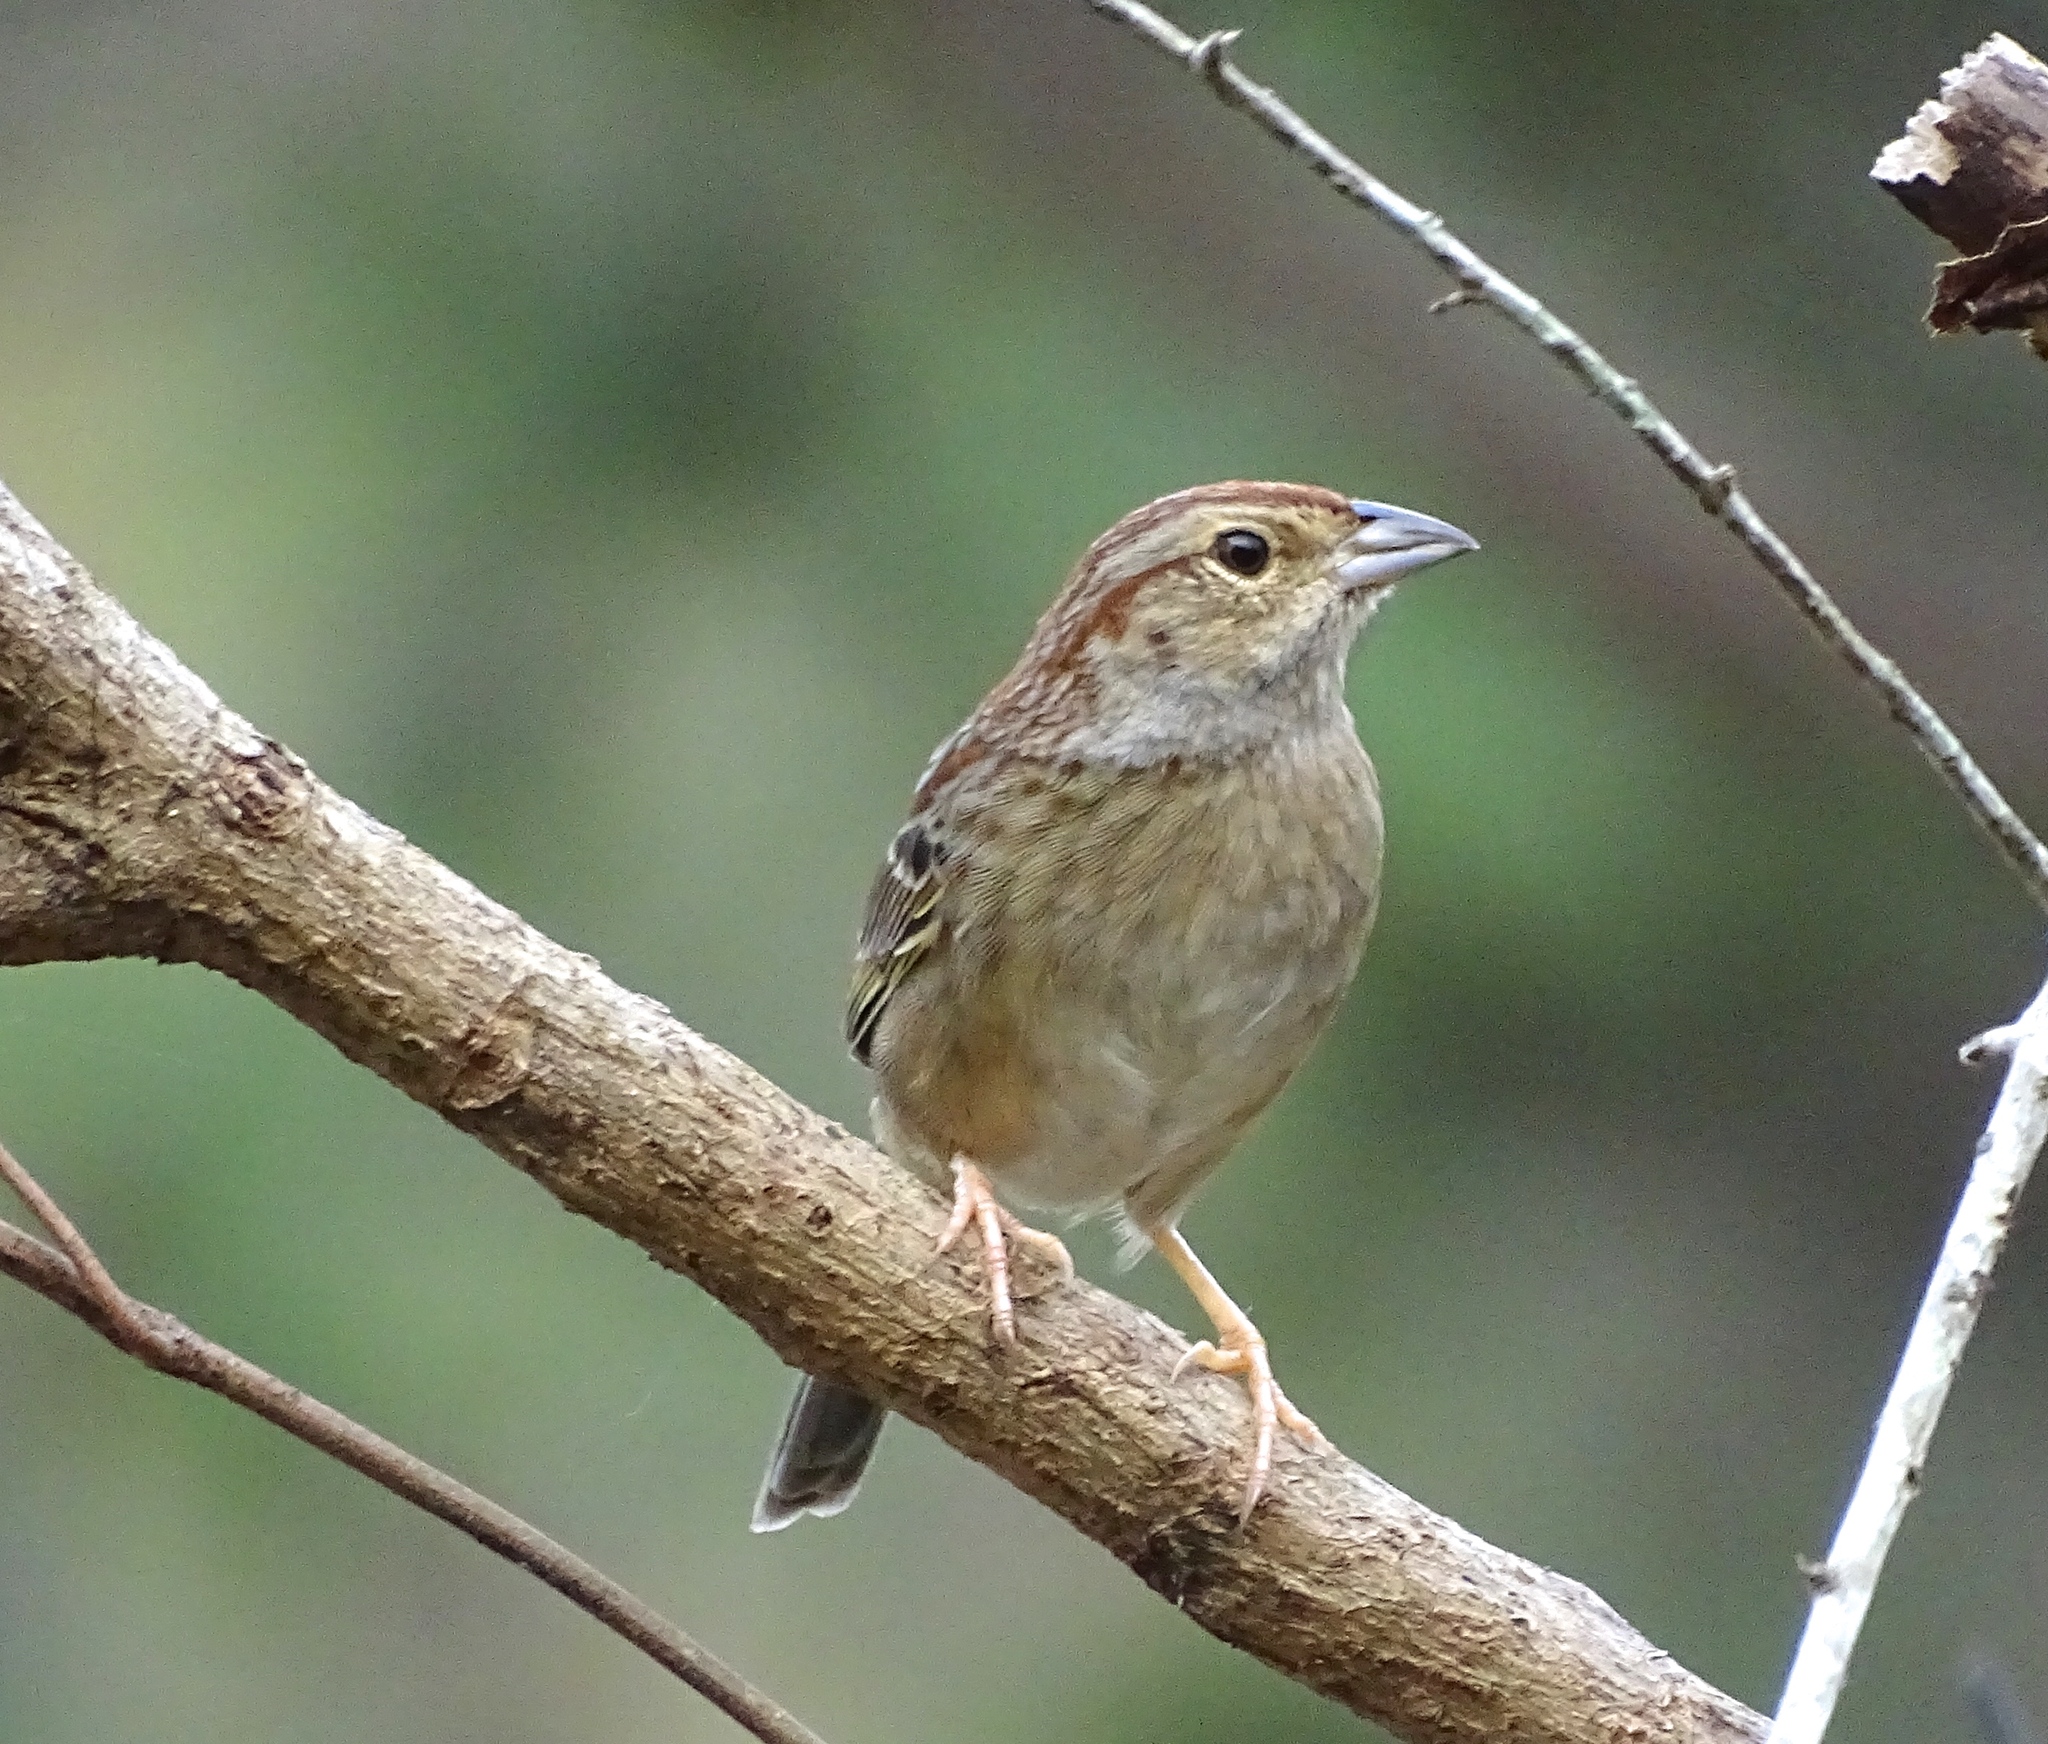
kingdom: Animalia
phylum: Chordata
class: Aves
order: Passeriformes
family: Passerellidae
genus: Peucaea
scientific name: Peucaea aestivalis
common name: Bachman's sparrow
